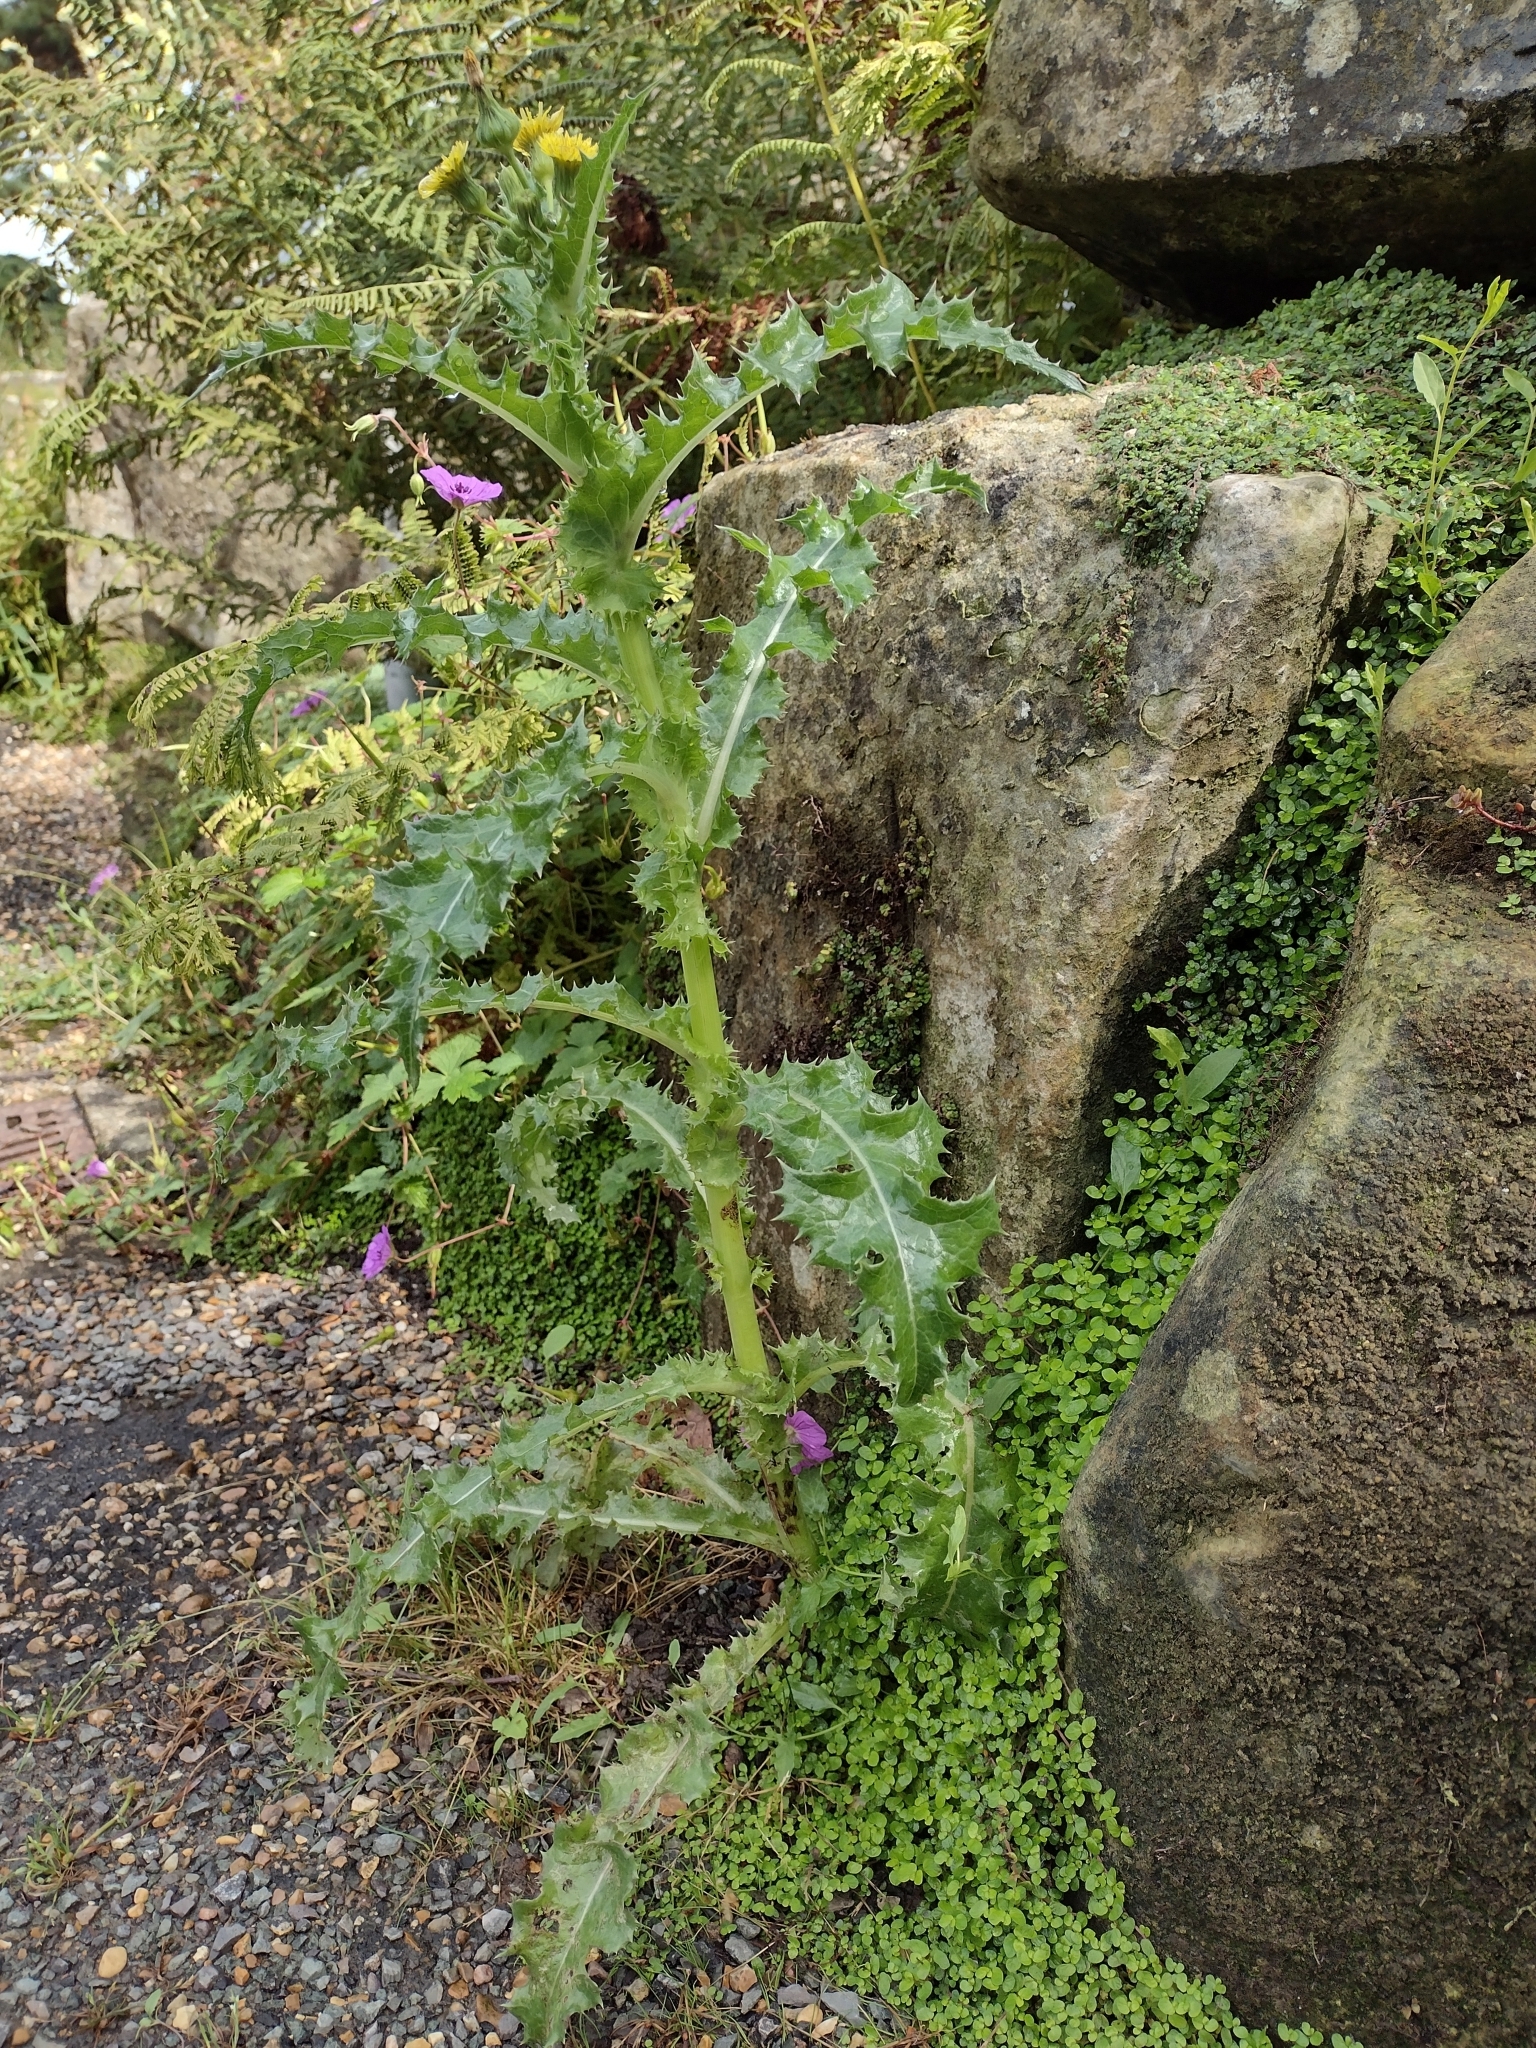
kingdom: Plantae
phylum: Tracheophyta
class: Magnoliopsida
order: Asterales
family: Asteraceae
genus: Sonchus
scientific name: Sonchus asper
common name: Prickly sow-thistle
